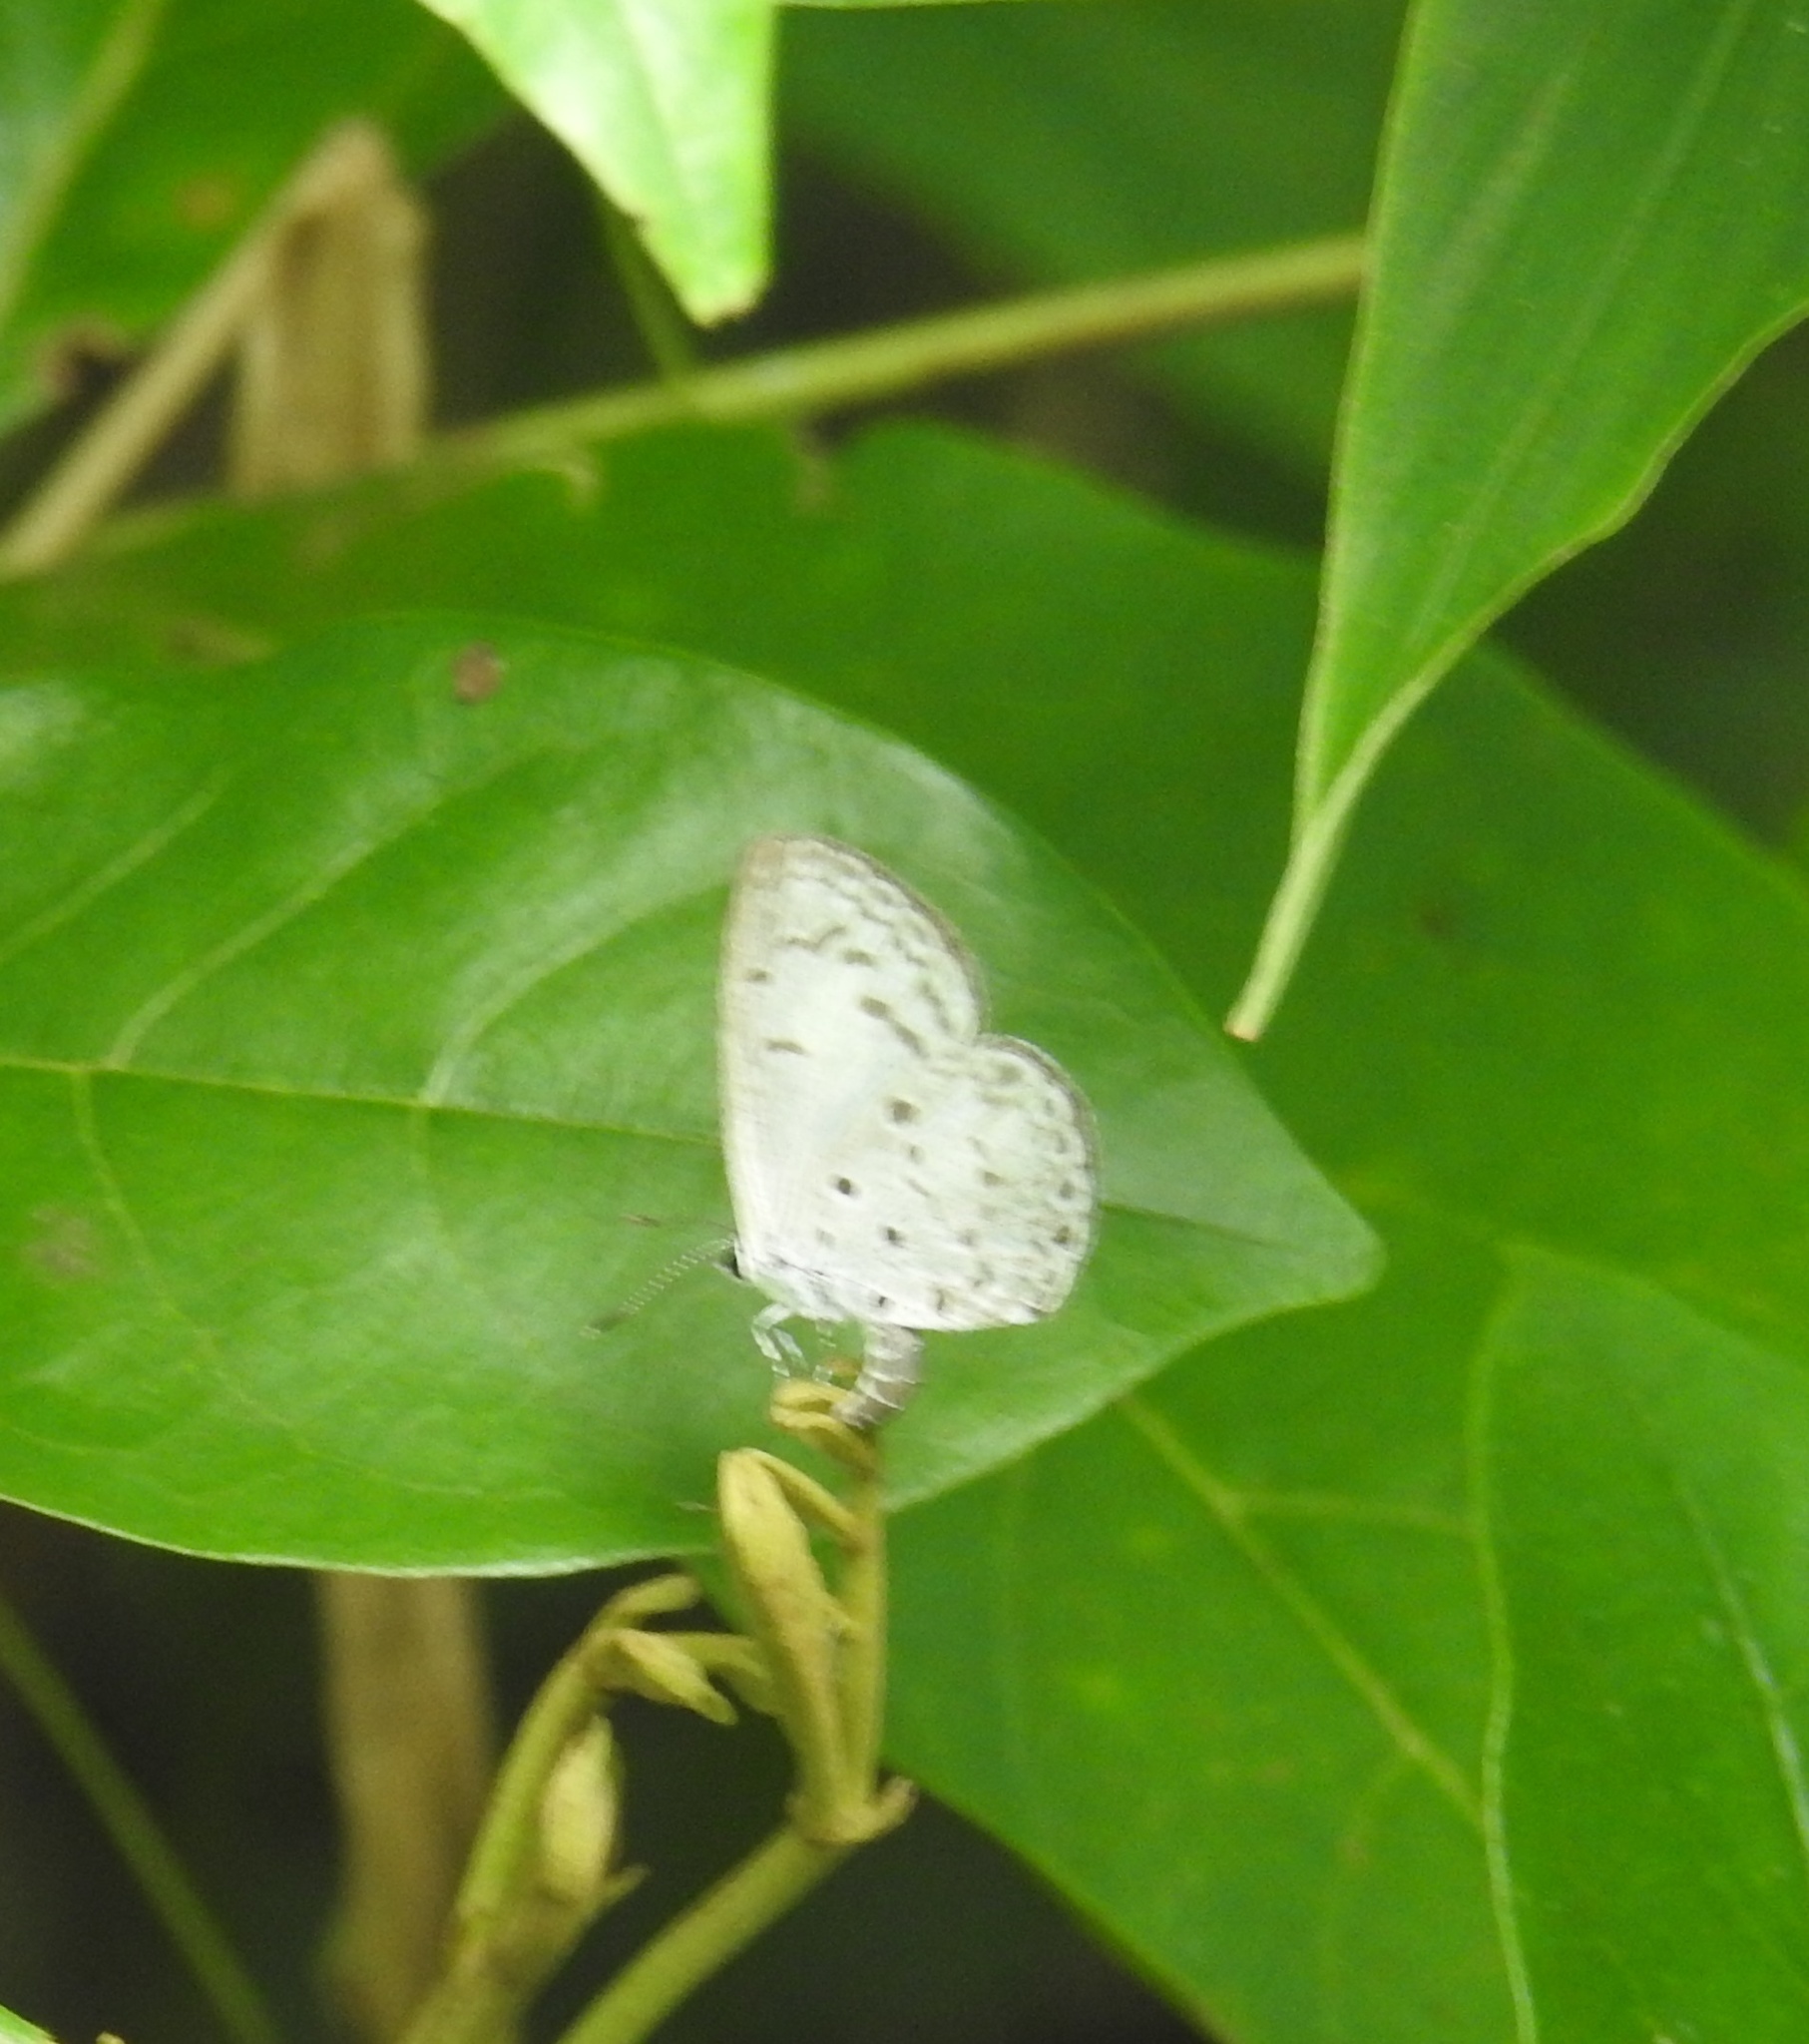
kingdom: Animalia
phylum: Arthropoda
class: Insecta
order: Lepidoptera
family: Lycaenidae
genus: Acytolepis
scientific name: Acytolepis puspa
